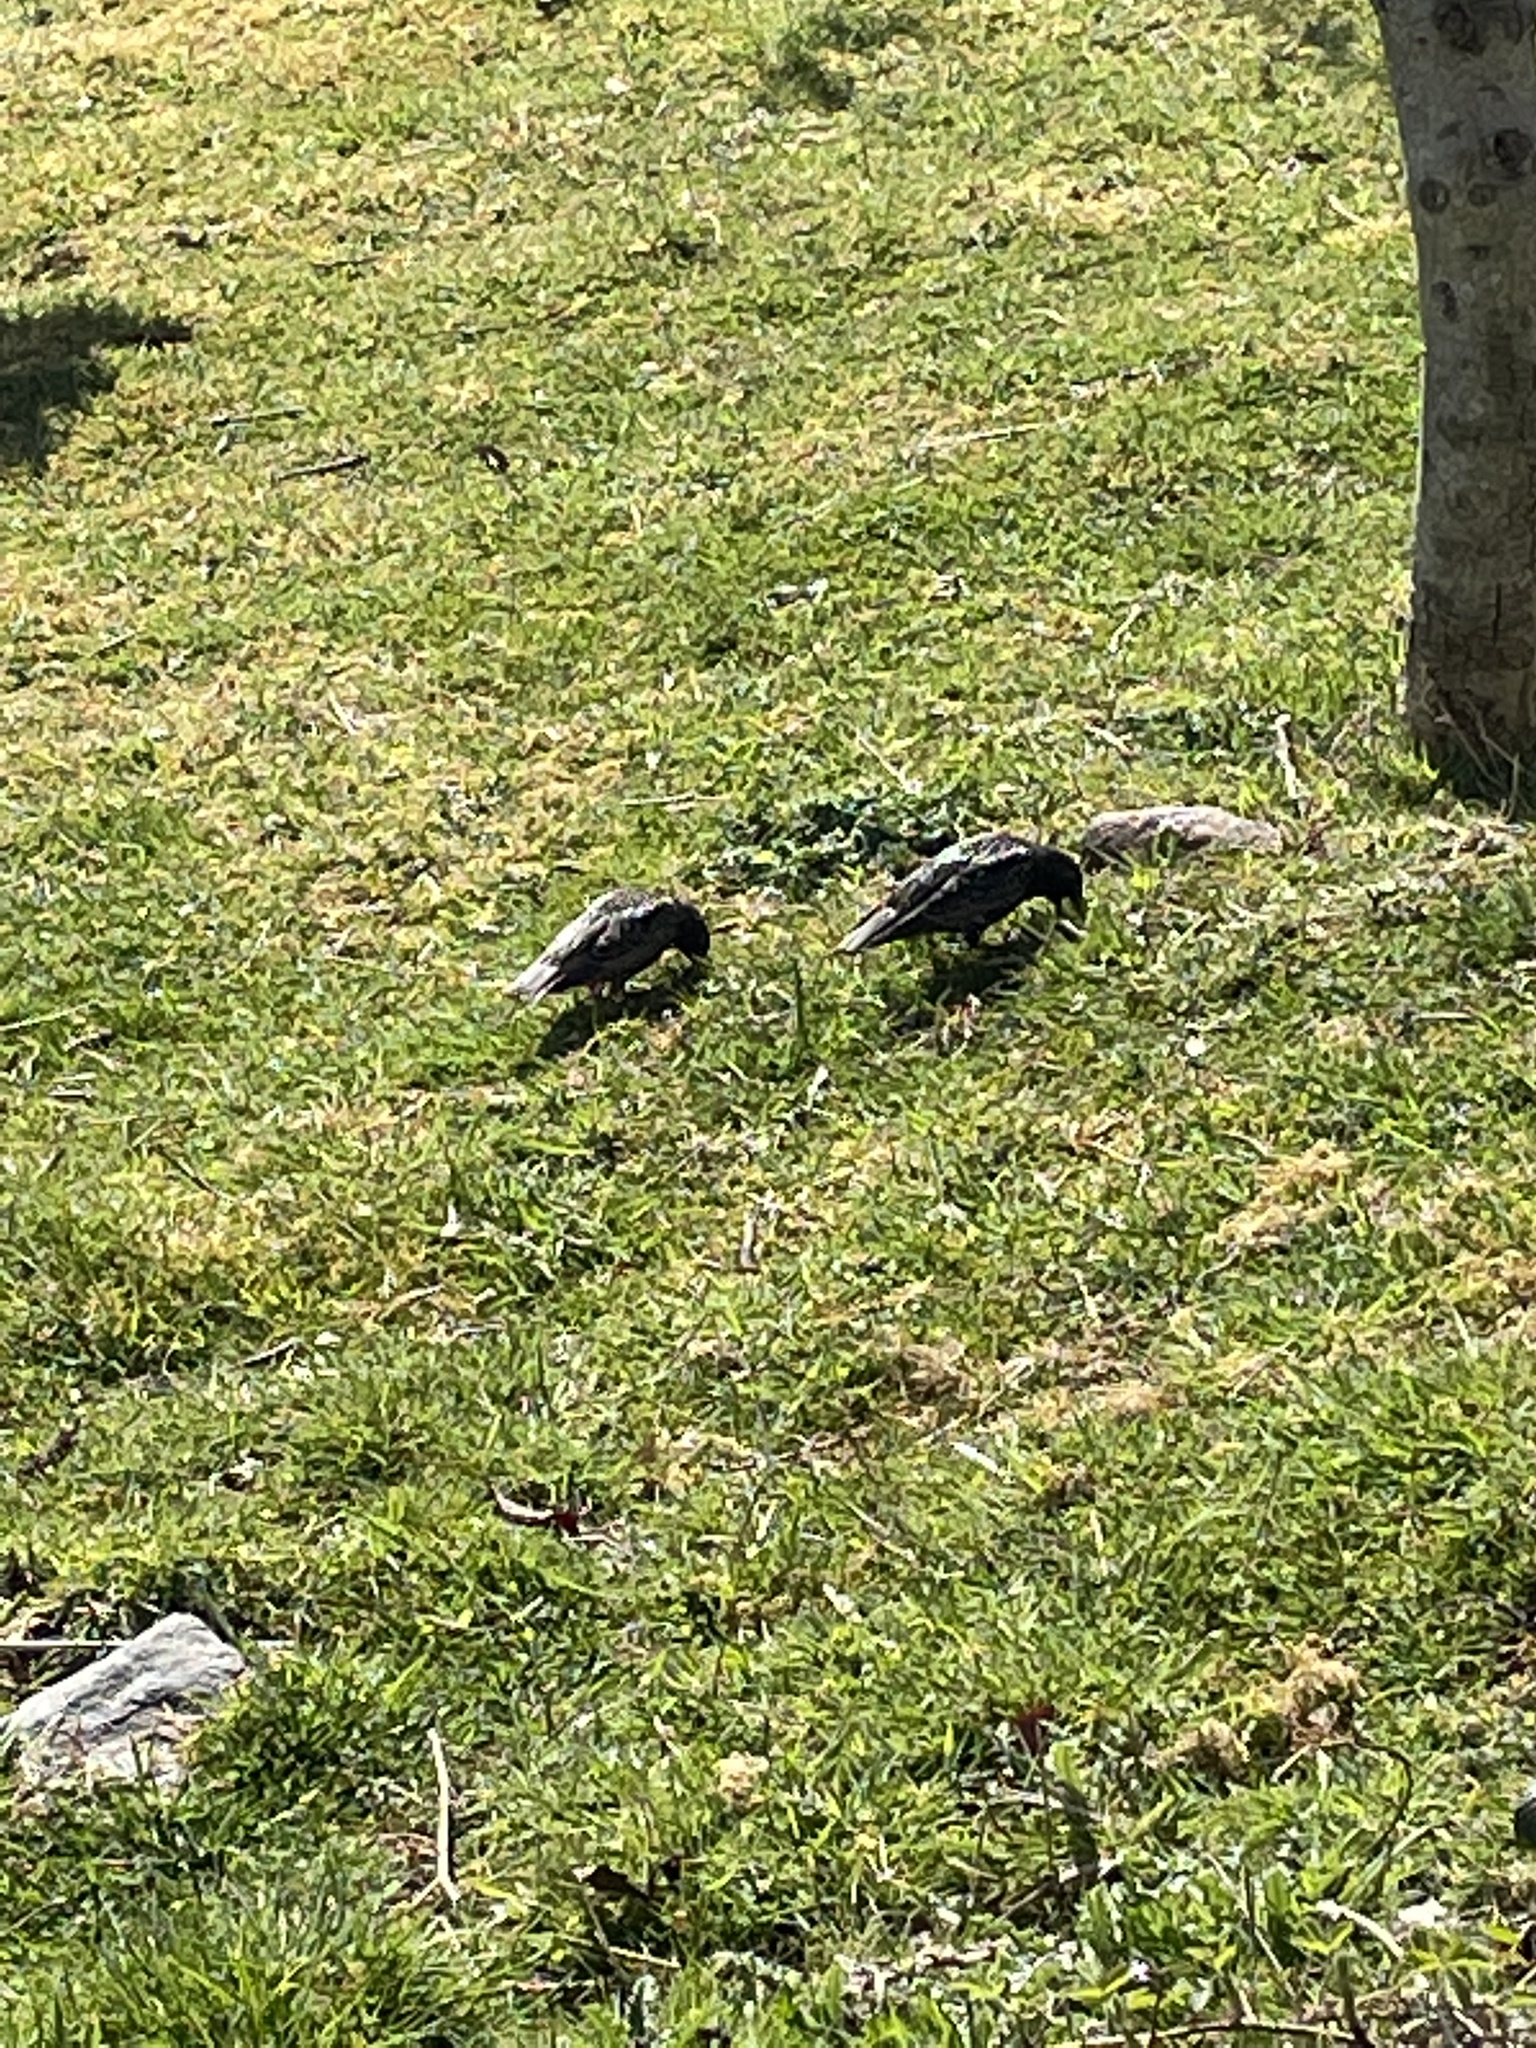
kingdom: Animalia
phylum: Chordata
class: Aves
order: Passeriformes
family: Sturnidae
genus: Sturnus
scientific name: Sturnus vulgaris
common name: Common starling
